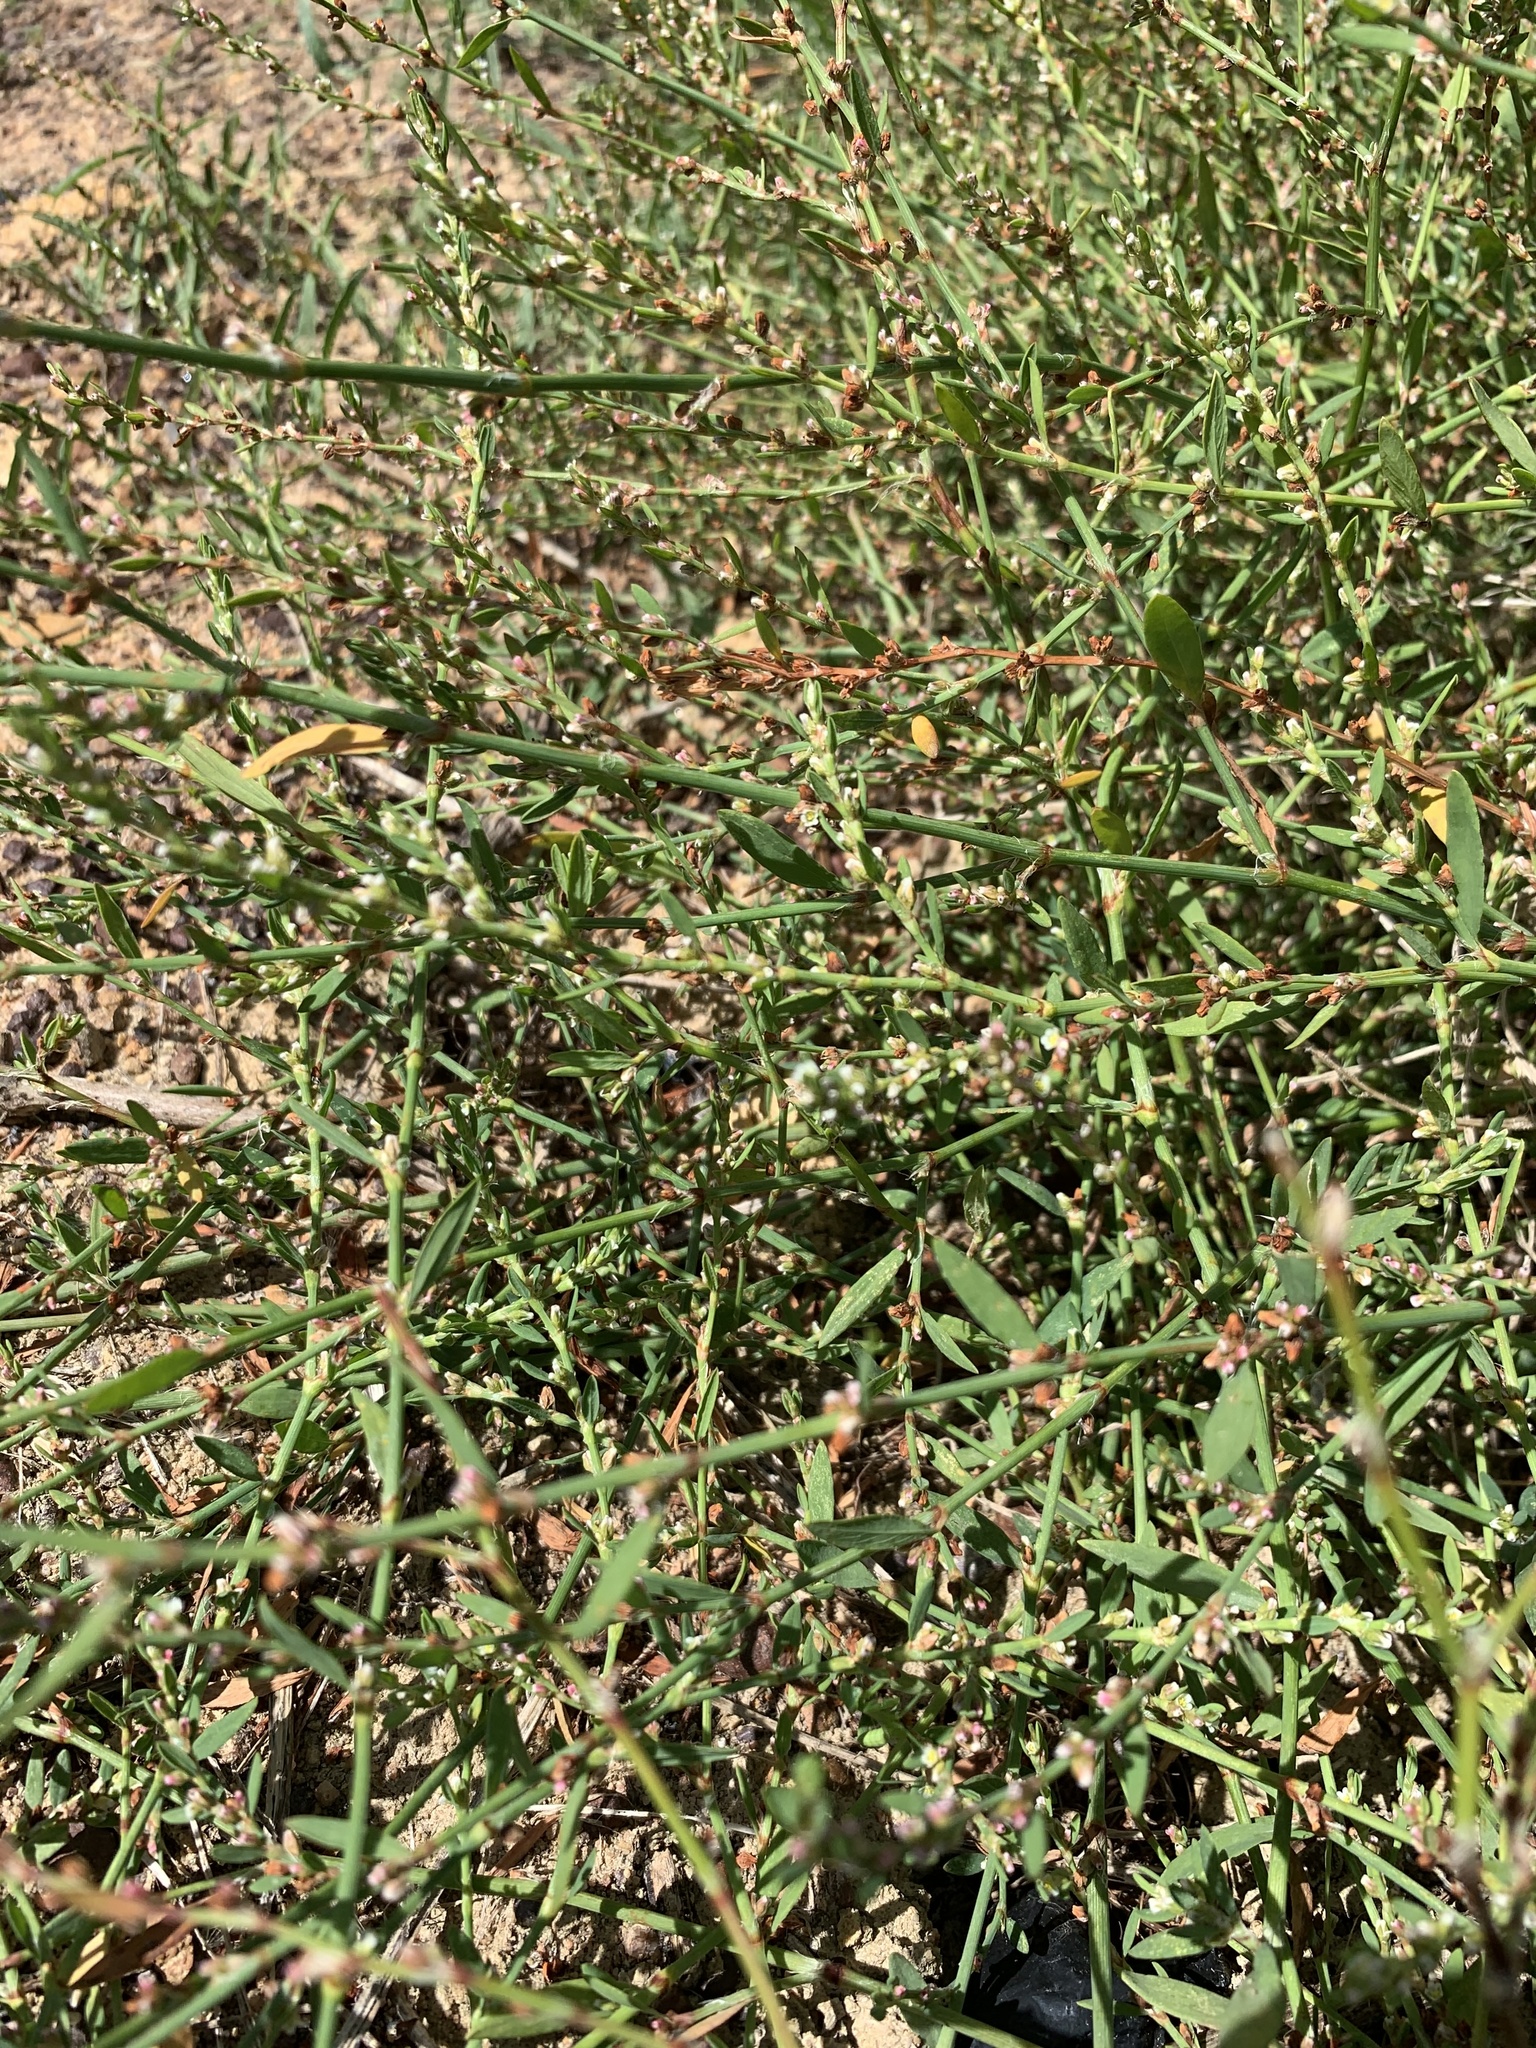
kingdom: Plantae
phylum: Tracheophyta
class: Magnoliopsida
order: Caryophyllales
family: Polygonaceae
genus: Polygonum
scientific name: Polygonum aviculare
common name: Prostrate knotweed
